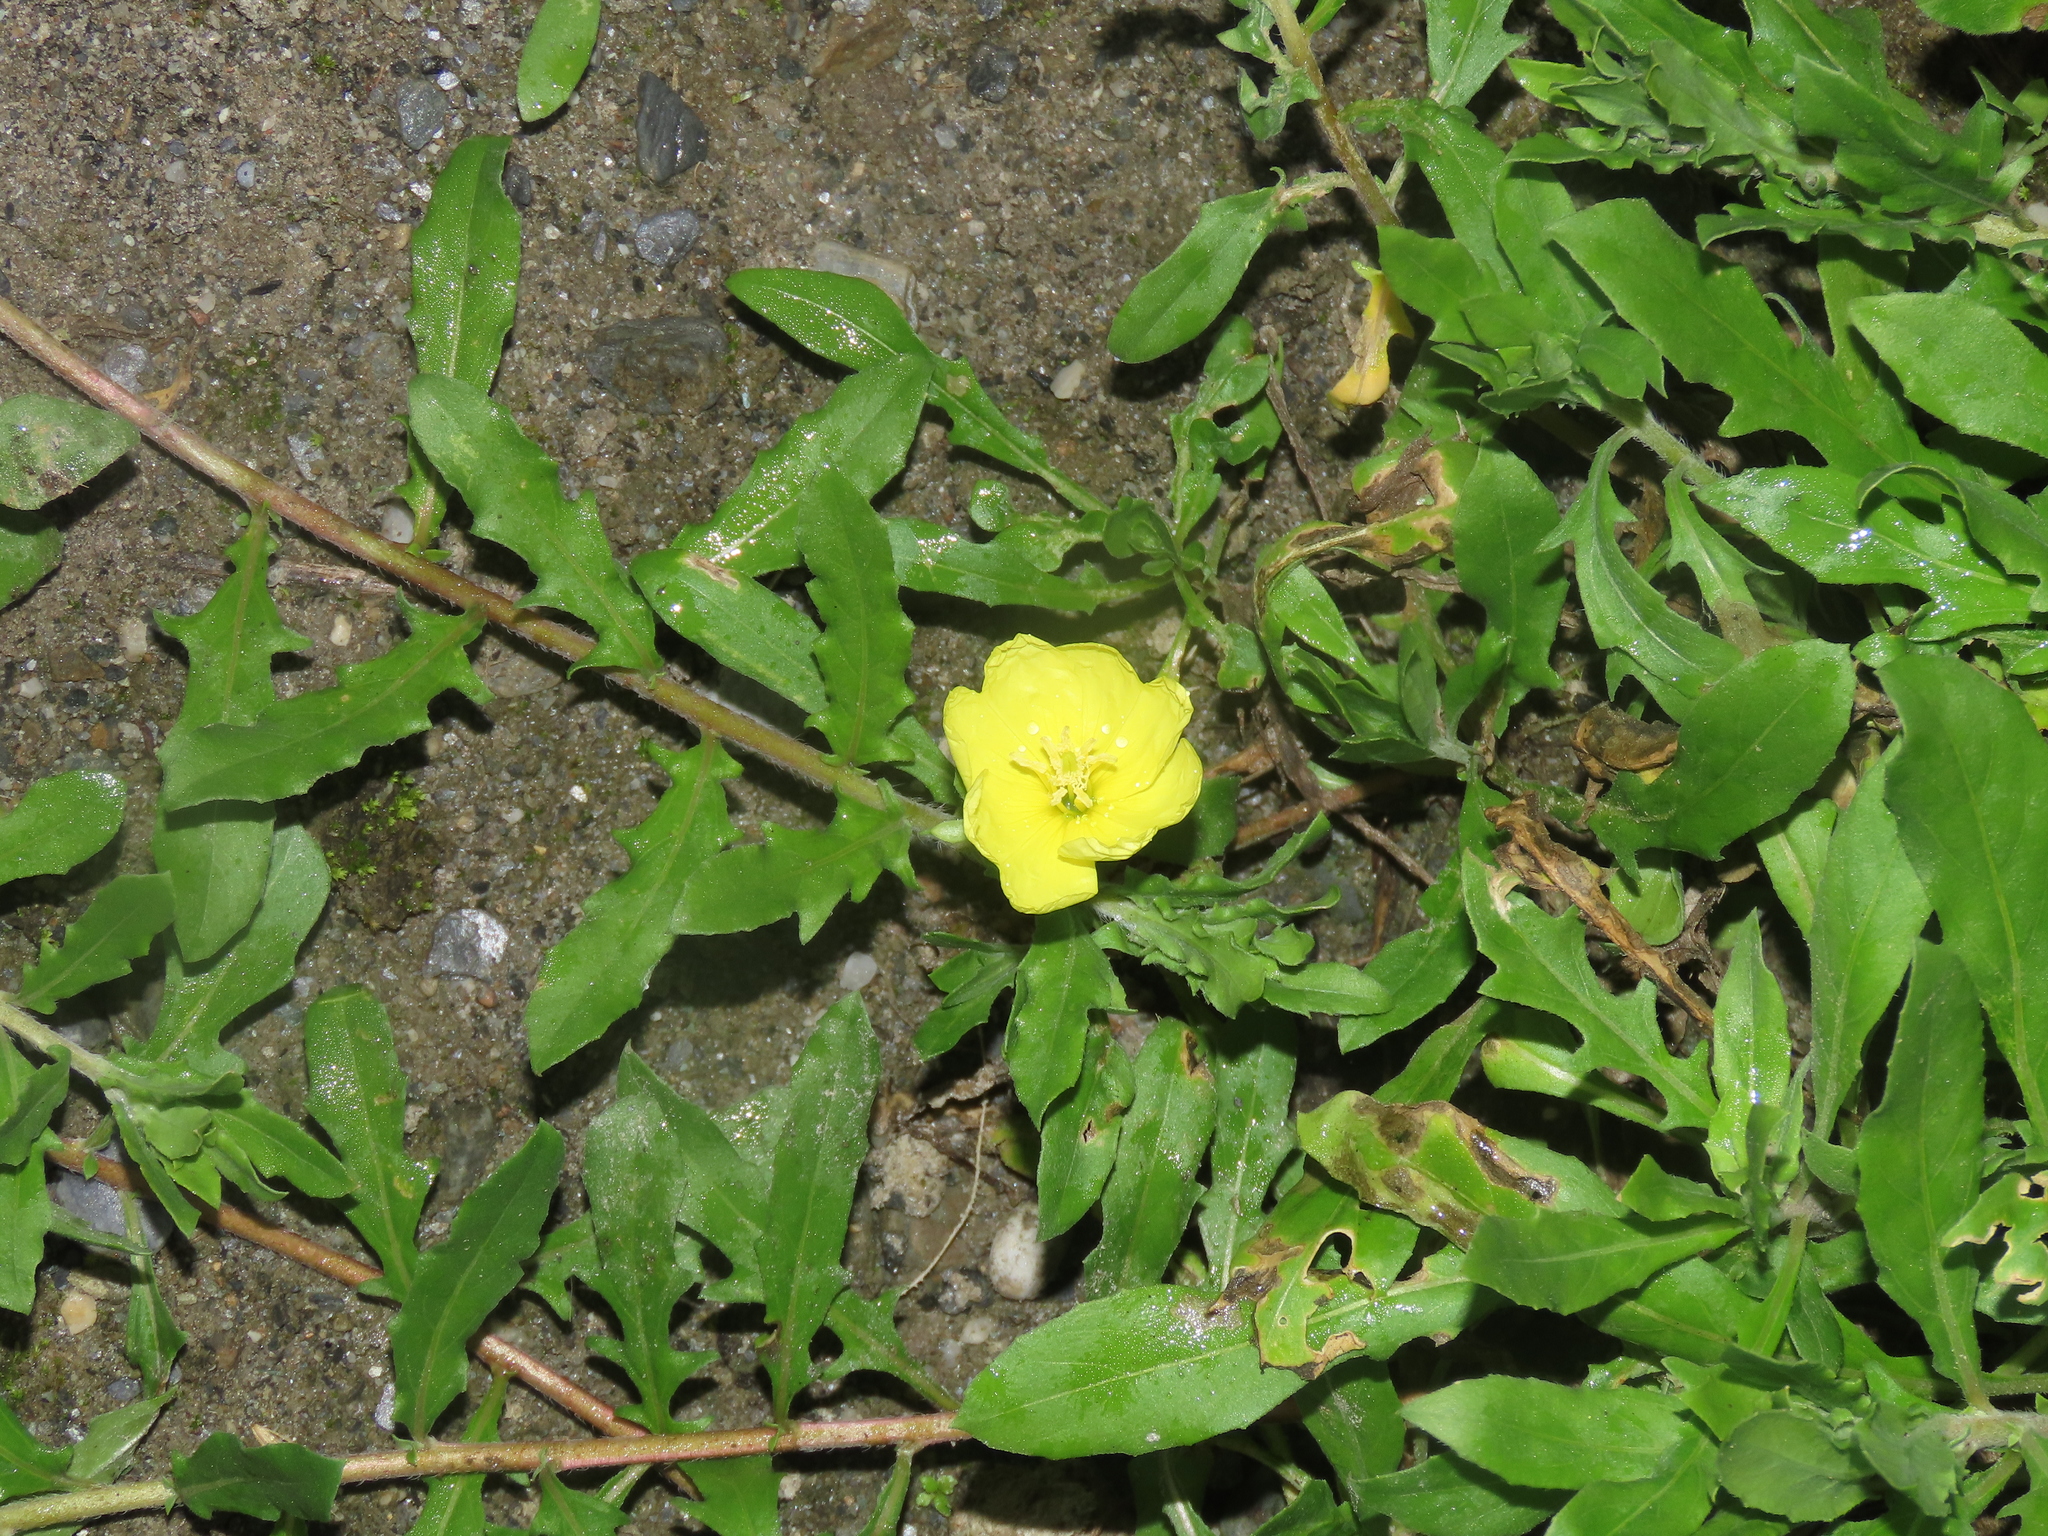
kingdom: Plantae
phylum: Tracheophyta
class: Magnoliopsida
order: Myrtales
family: Onagraceae
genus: Oenothera
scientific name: Oenothera laciniata
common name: Cut-leaved evening-primrose
